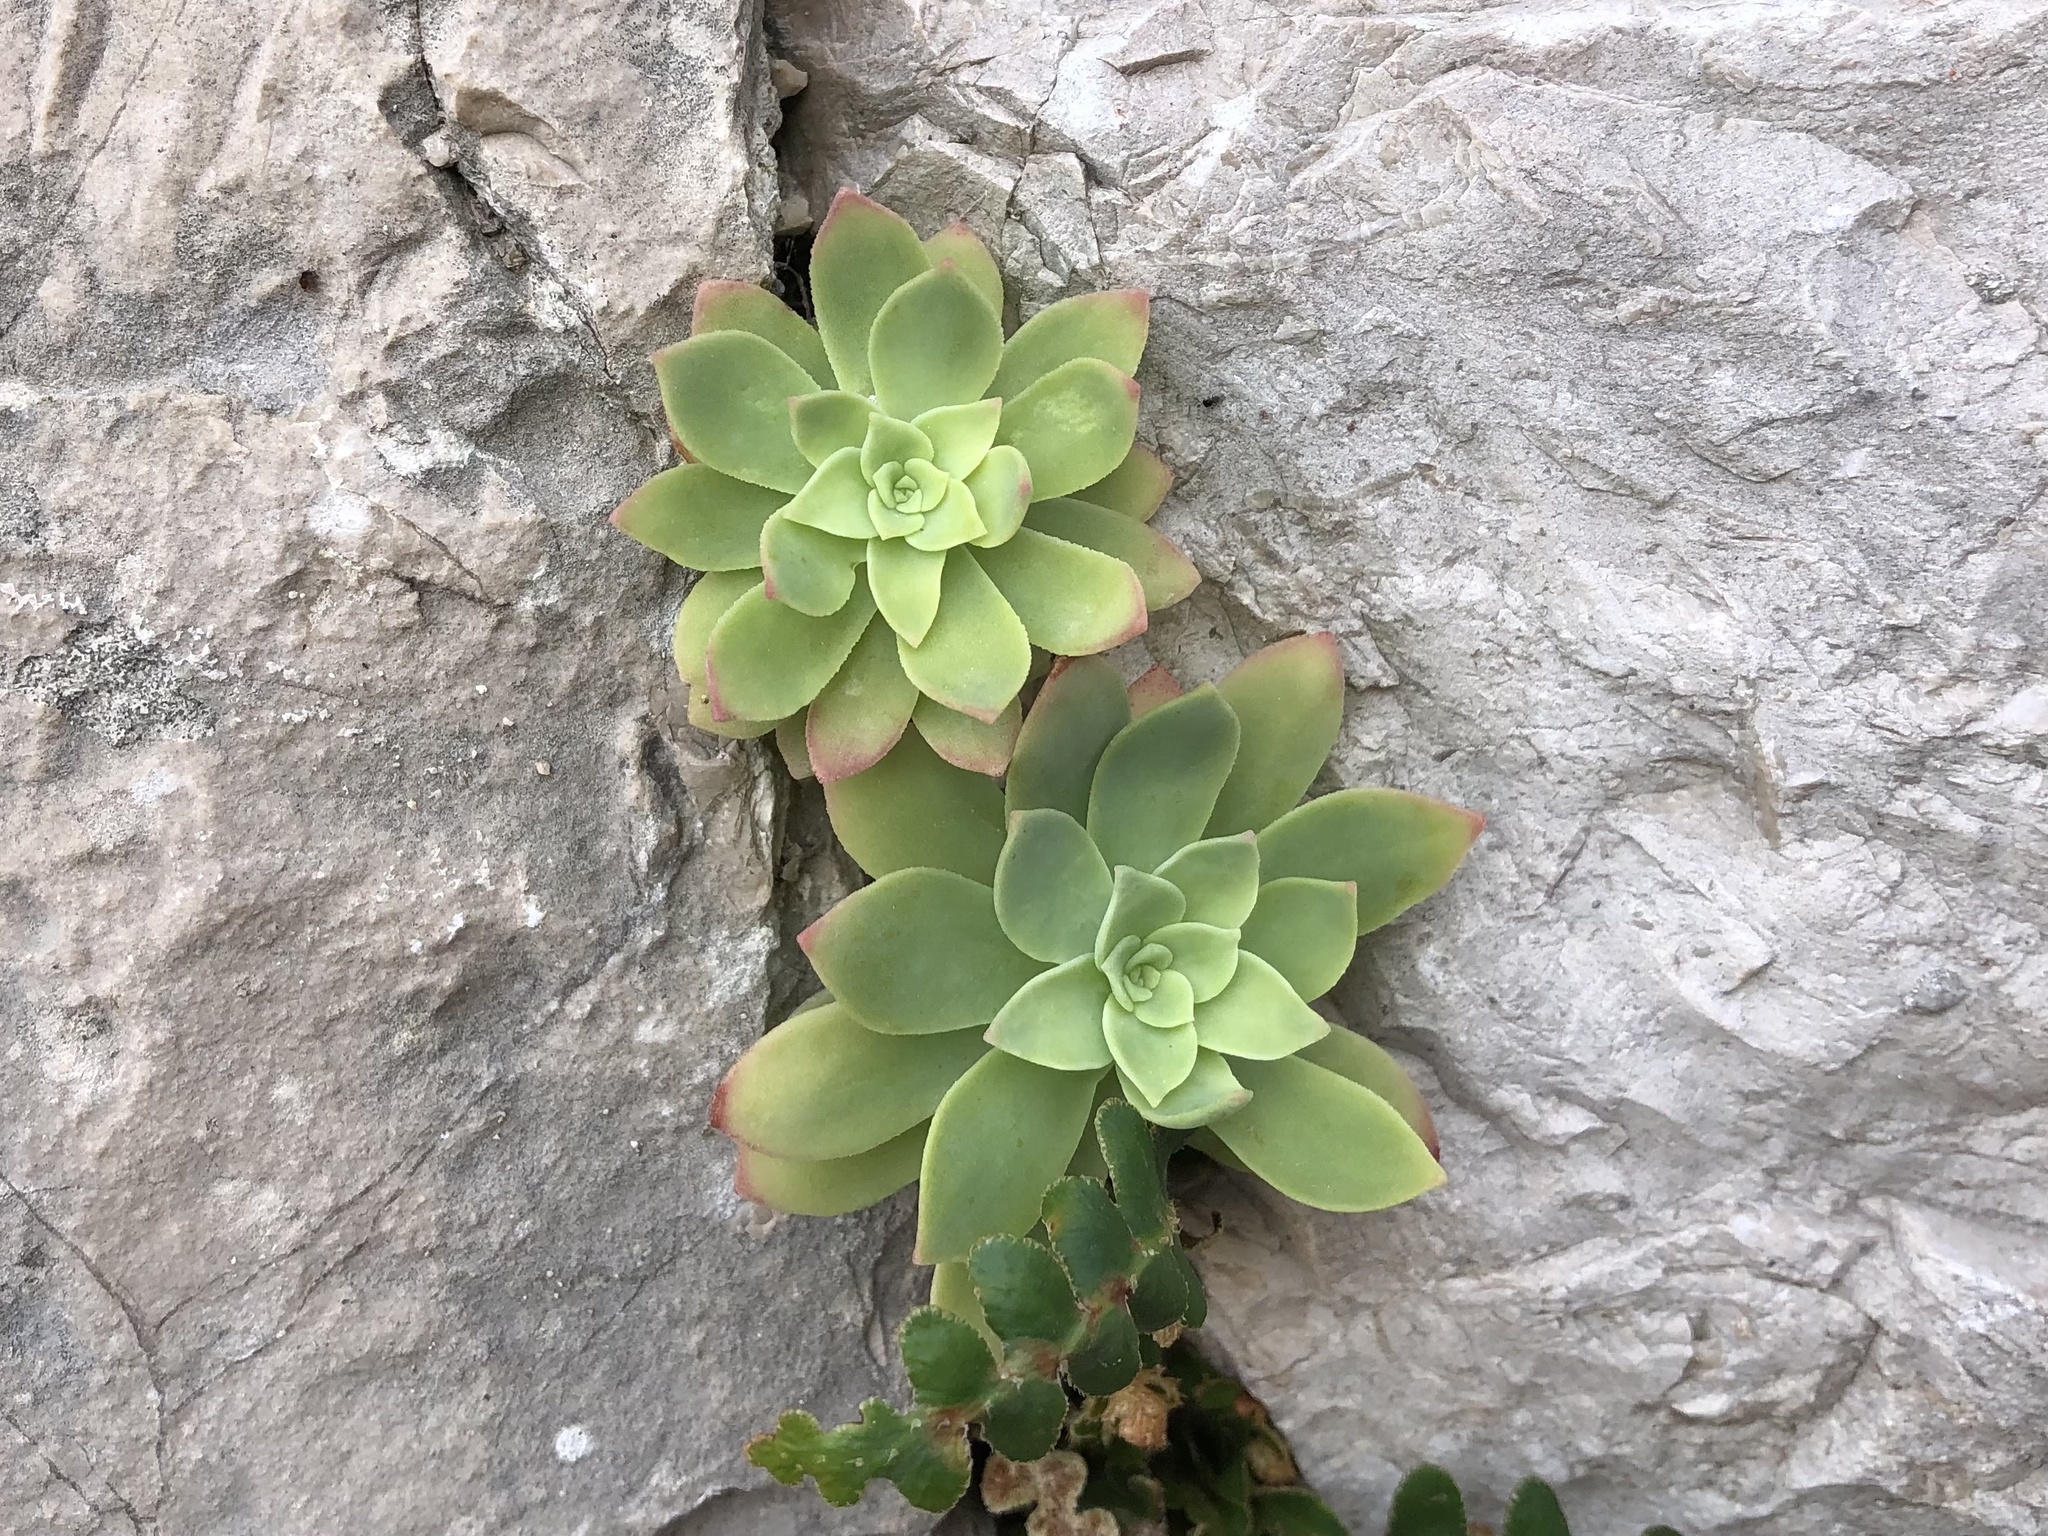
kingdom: Plantae
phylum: Tracheophyta
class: Magnoliopsida
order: Saxifragales
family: Crassulaceae
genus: Sedum
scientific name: Sedum palmeri
